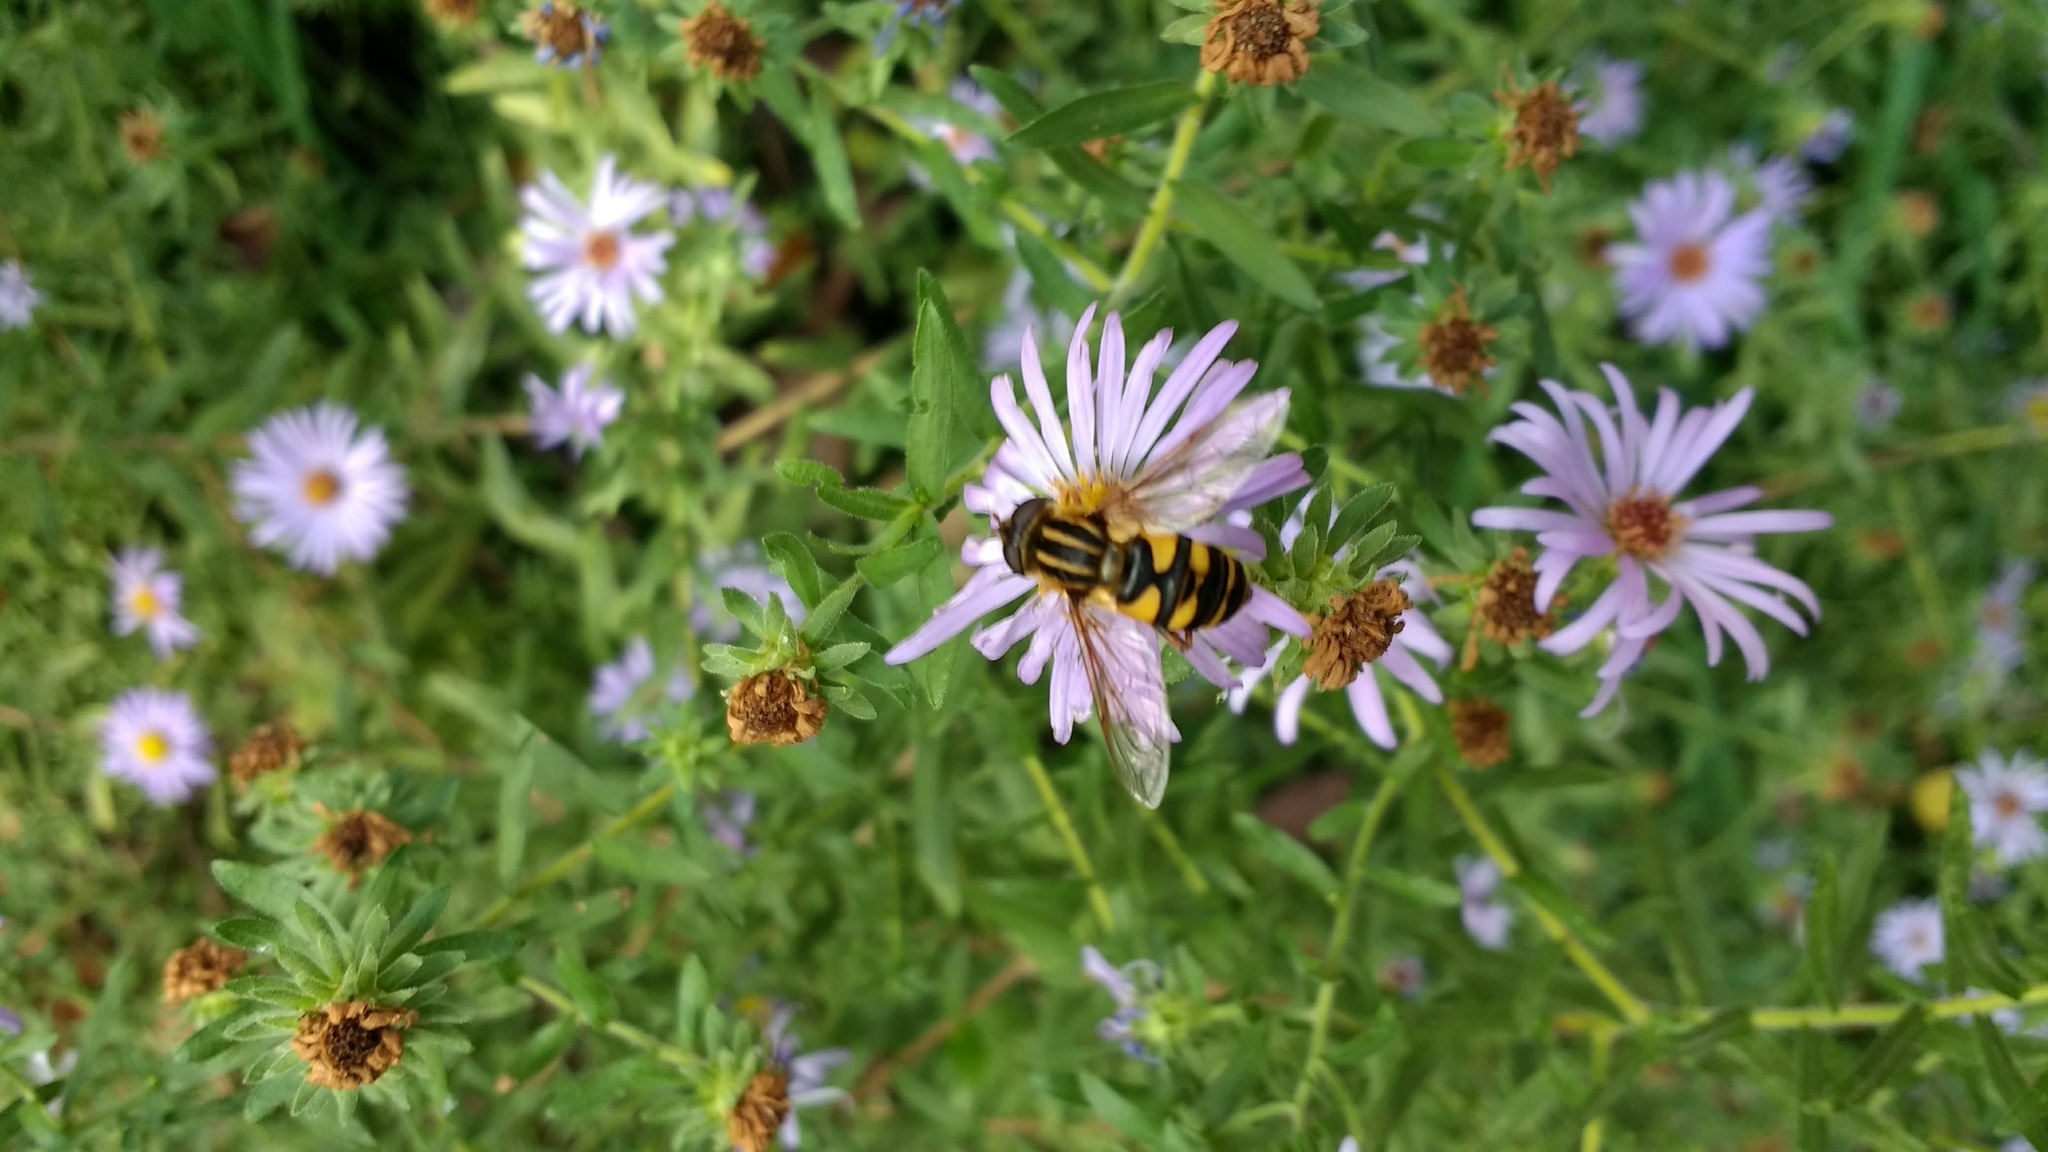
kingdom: Animalia
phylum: Arthropoda
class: Insecta
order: Diptera
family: Syrphidae
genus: Helophilus
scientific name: Helophilus fasciatus
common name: Narrow-headed marsh fly
